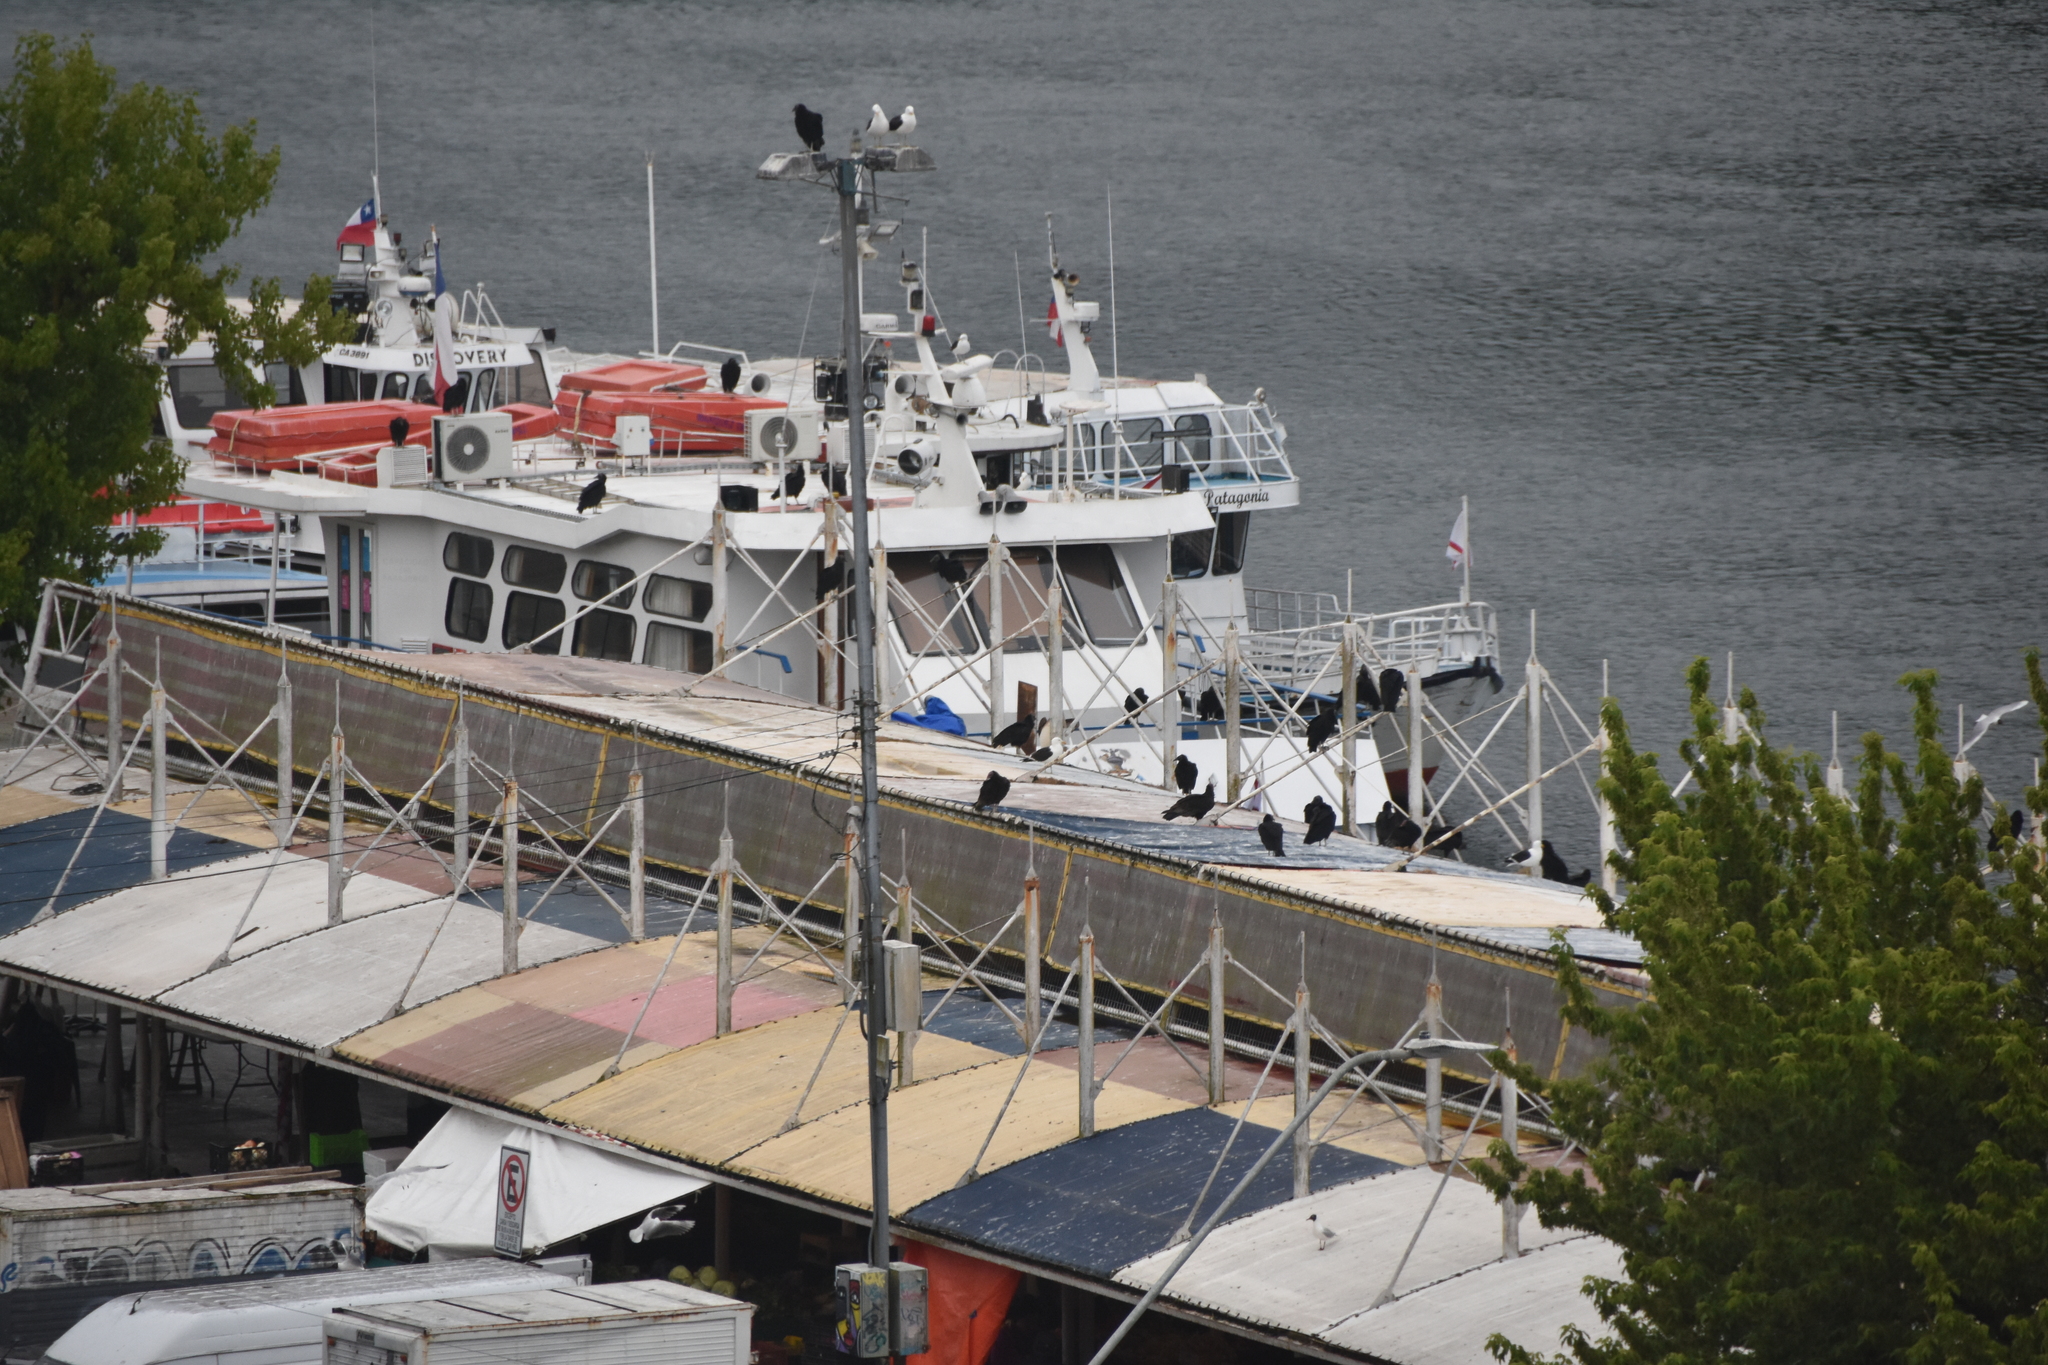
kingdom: Animalia
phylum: Chordata
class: Aves
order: Accipitriformes
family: Cathartidae
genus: Coragyps
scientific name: Coragyps atratus
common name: Black vulture
